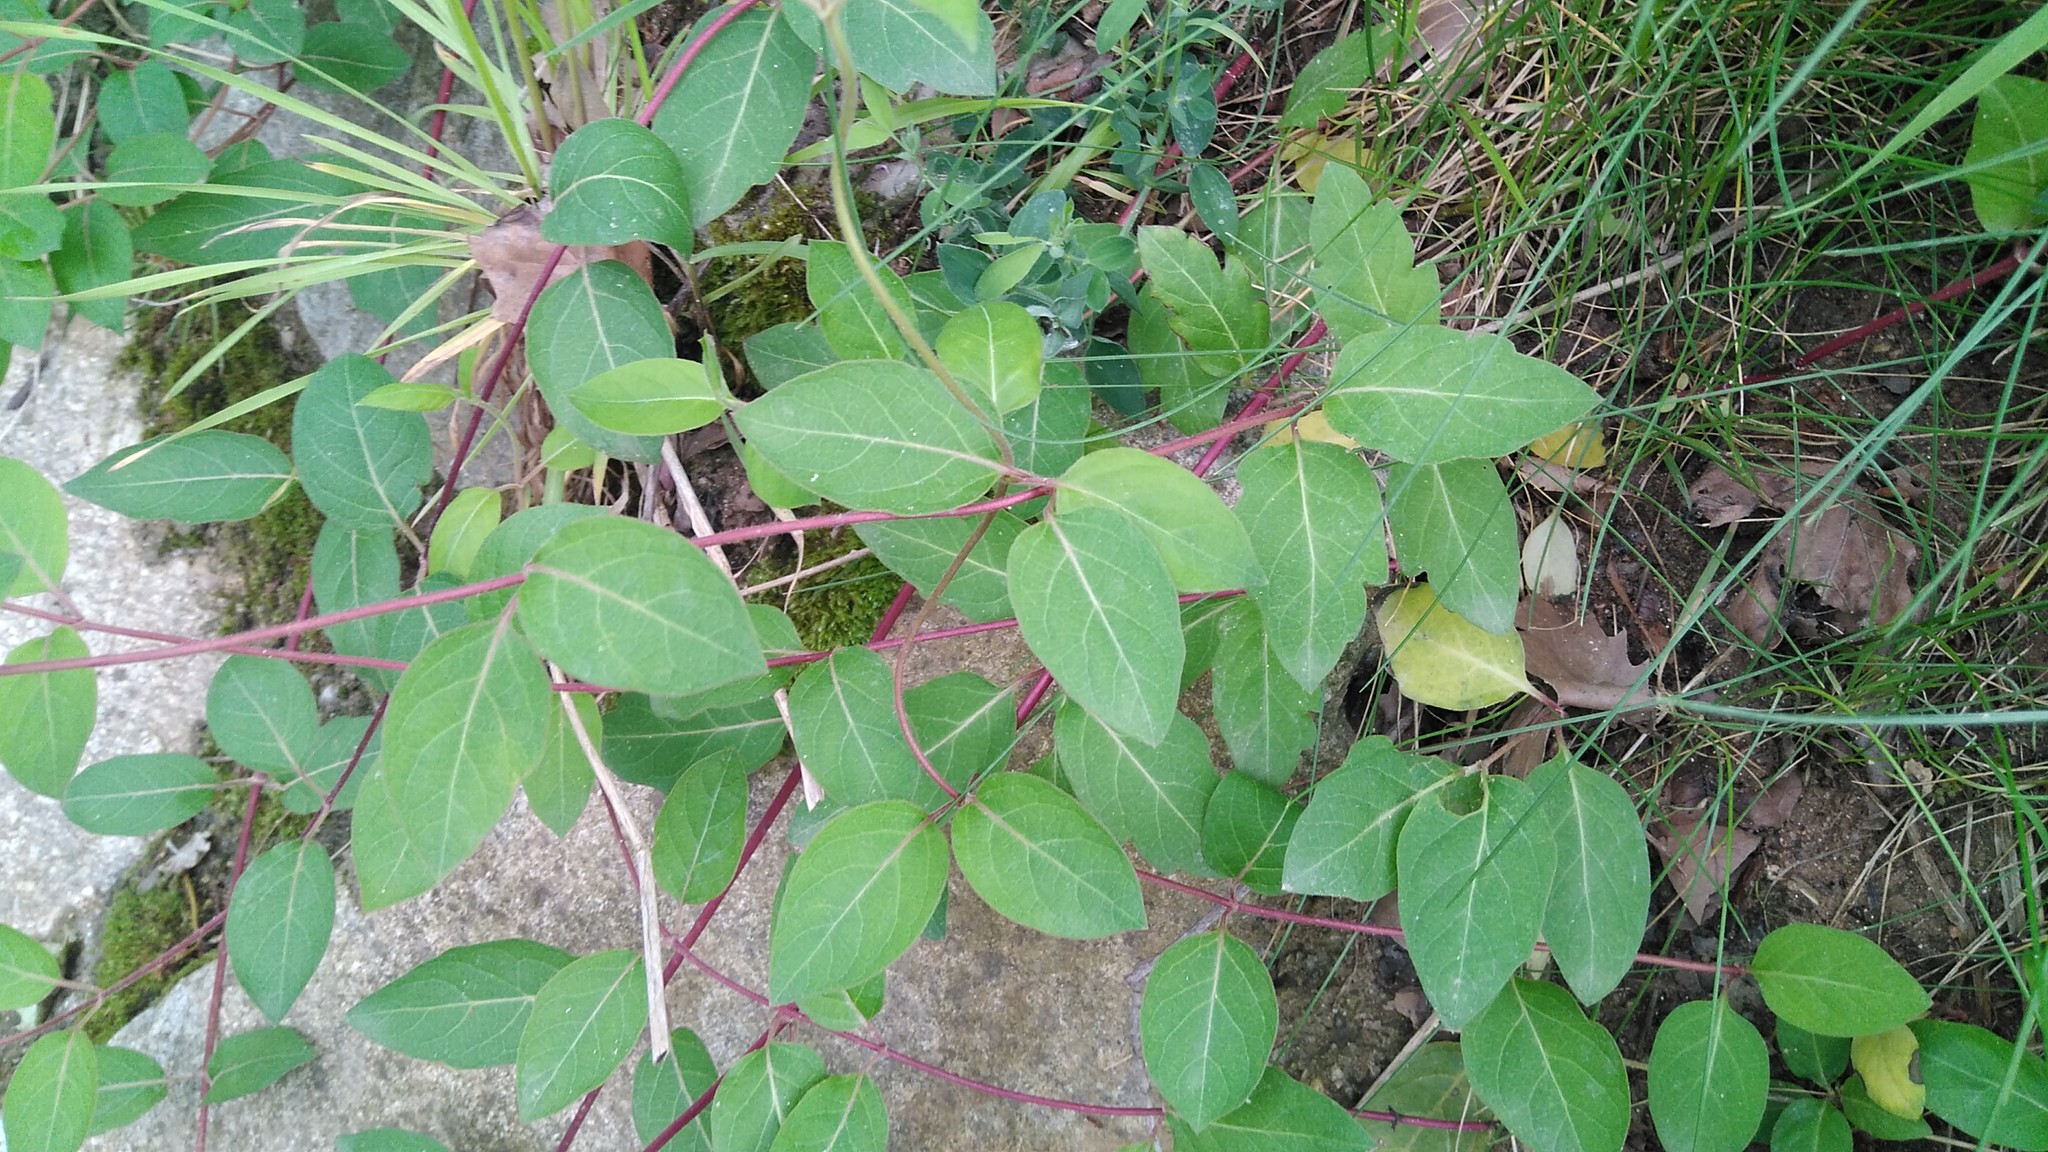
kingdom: Plantae
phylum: Tracheophyta
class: Magnoliopsida
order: Dipsacales
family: Caprifoliaceae
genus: Lonicera
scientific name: Lonicera japonica
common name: Japanese honeysuckle
